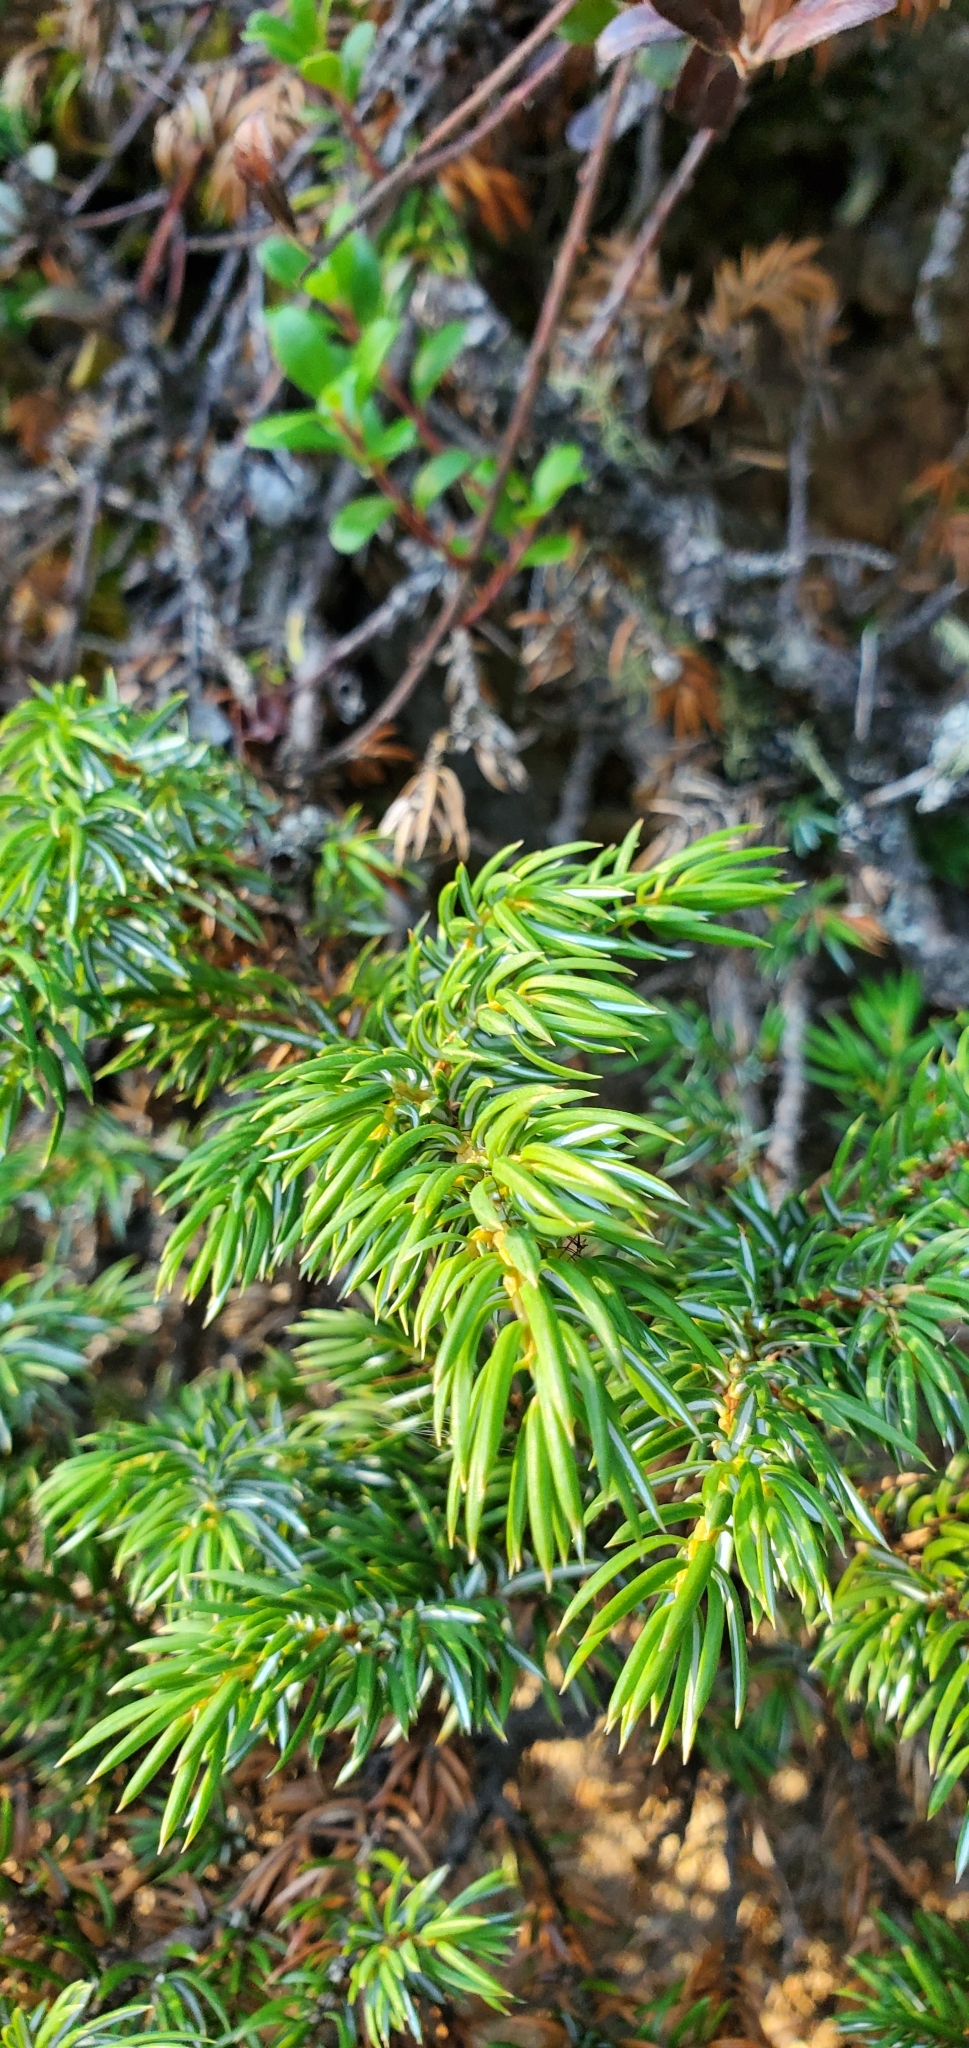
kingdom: Plantae
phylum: Tracheophyta
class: Pinopsida
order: Pinales
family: Cupressaceae
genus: Juniperus
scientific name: Juniperus communis
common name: Common juniper
